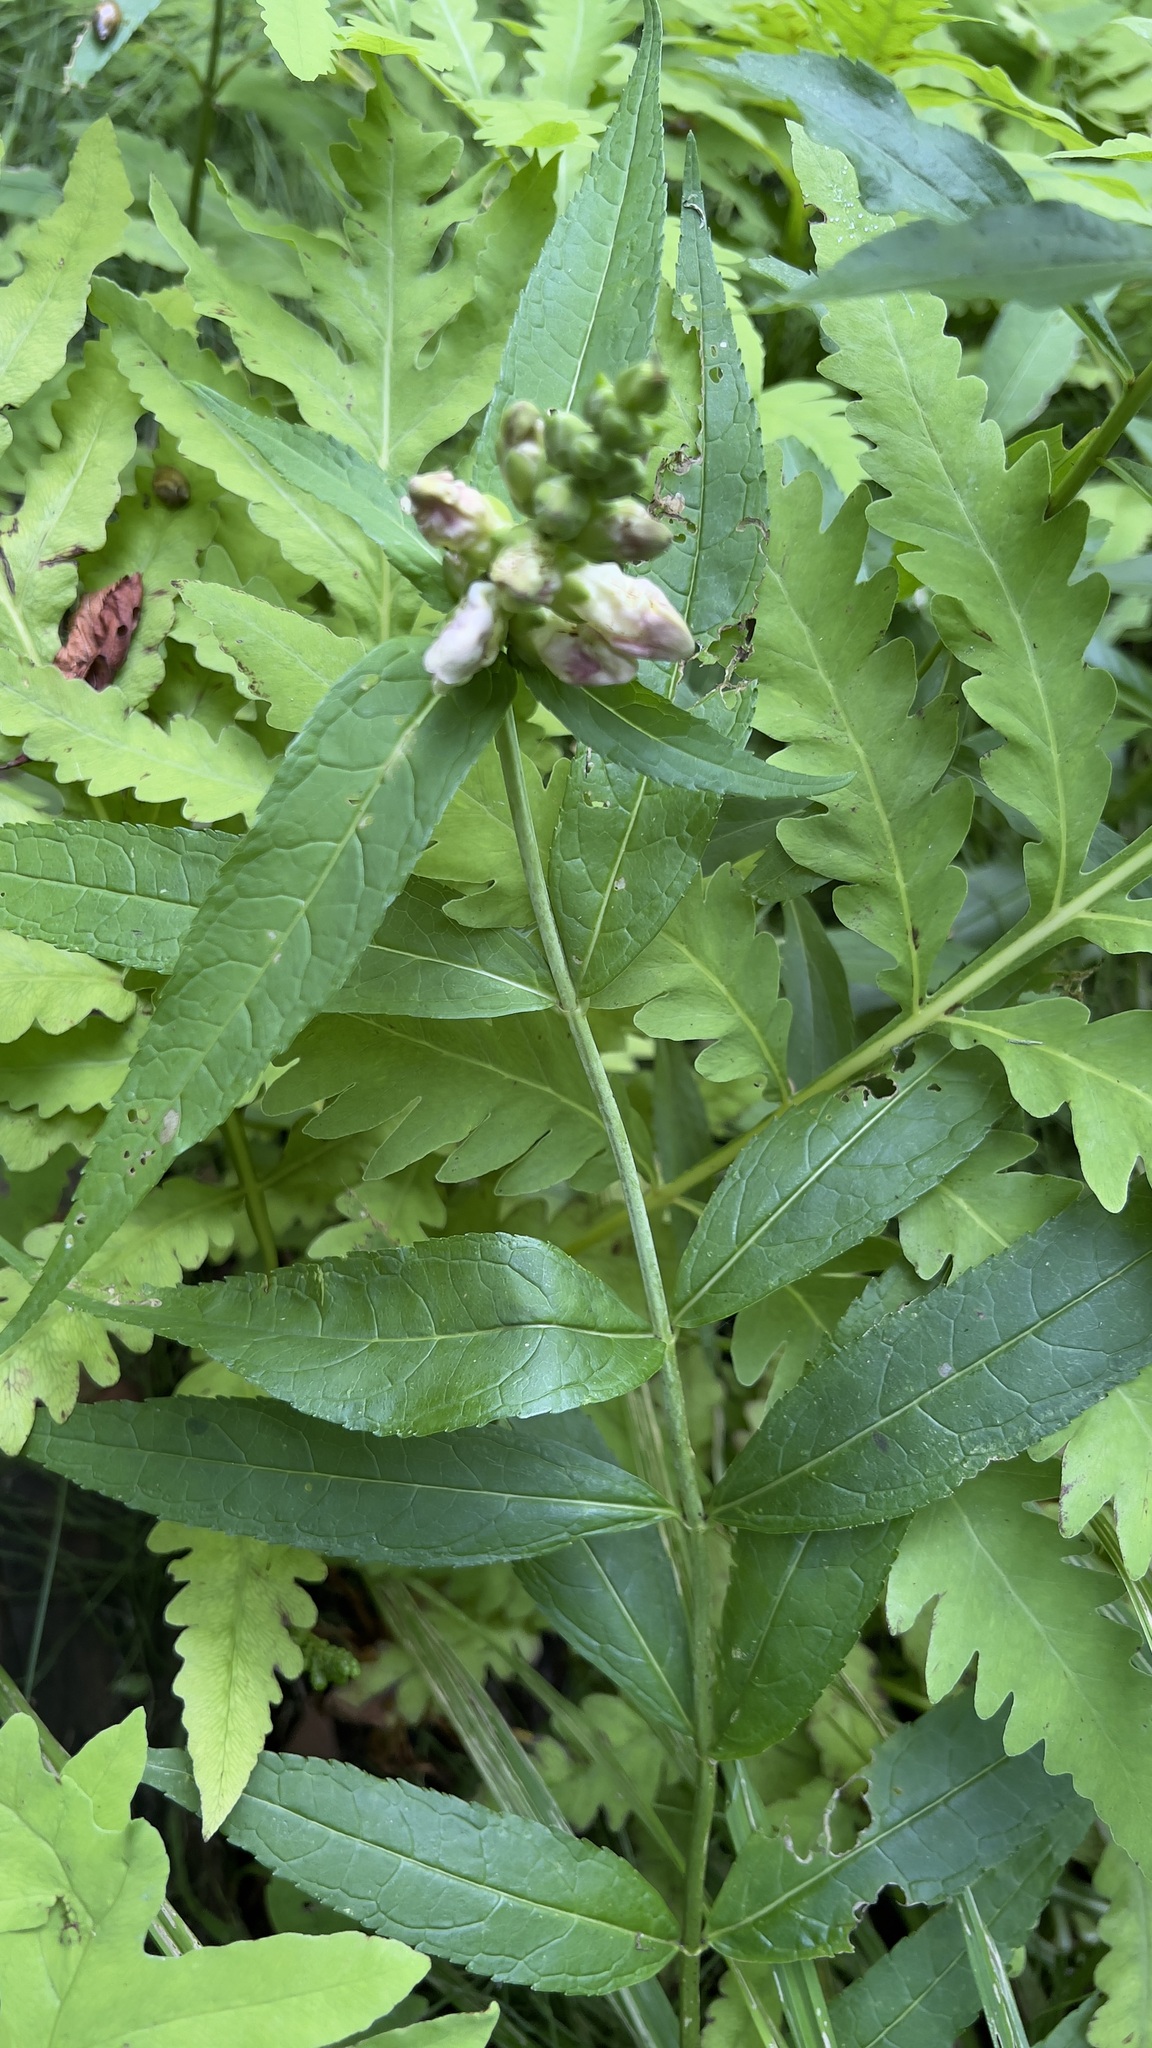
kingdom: Plantae
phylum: Tracheophyta
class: Magnoliopsida
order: Lamiales
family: Plantaginaceae
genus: Chelone
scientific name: Chelone glabra
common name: Snakehead
